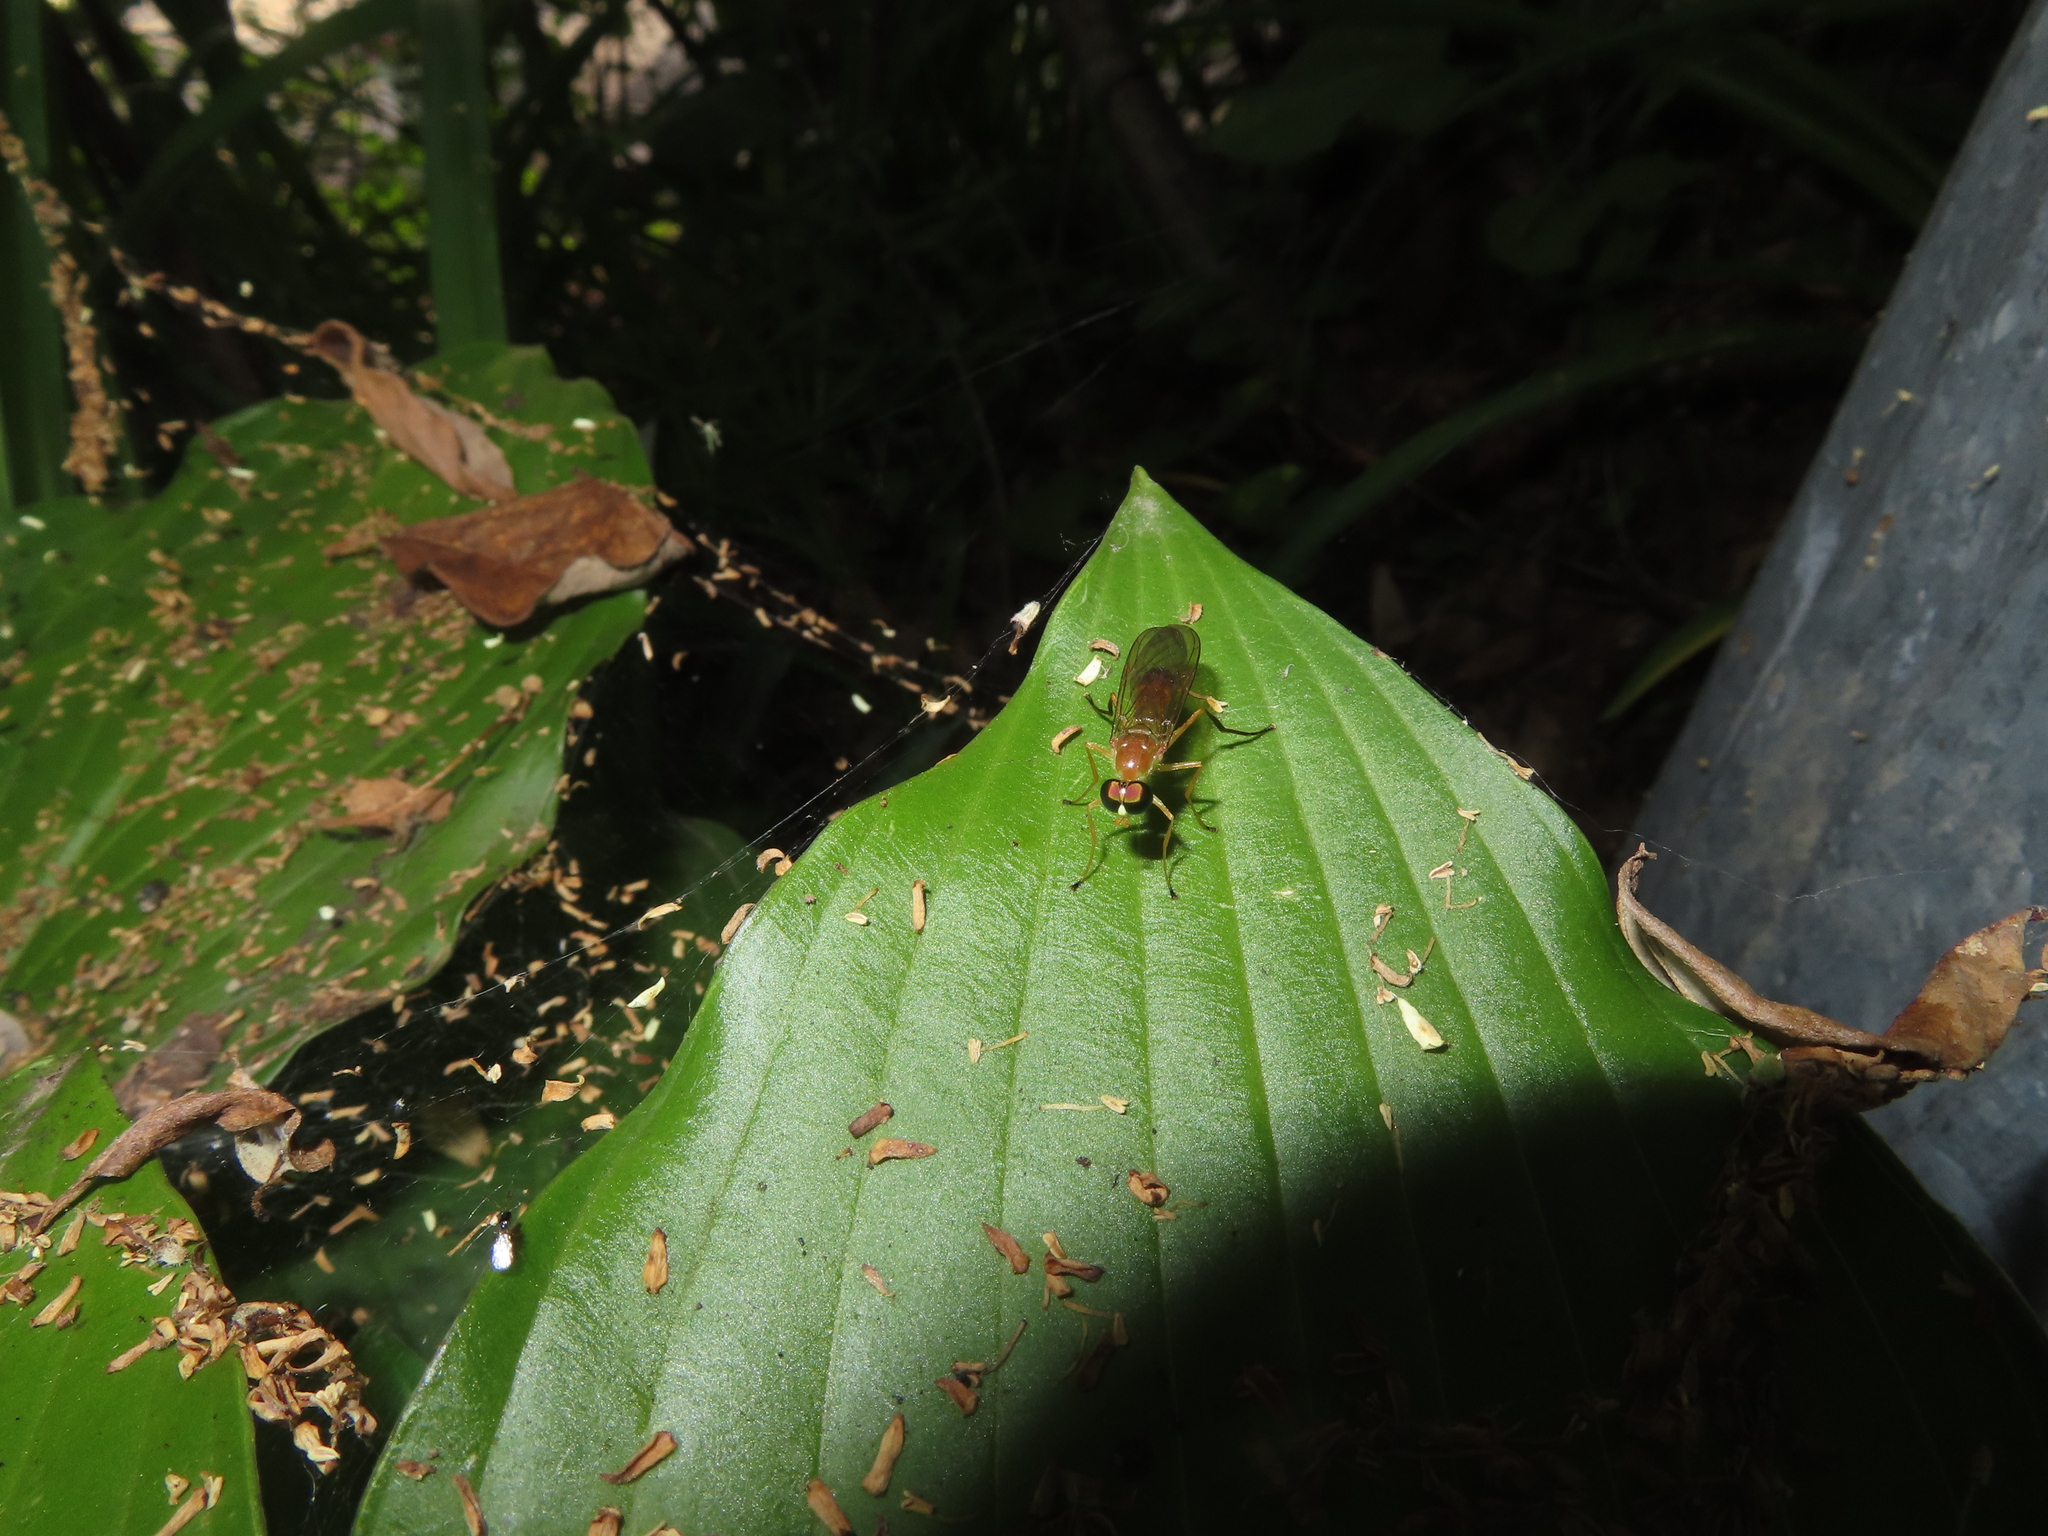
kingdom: Animalia
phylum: Arthropoda
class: Insecta
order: Diptera
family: Stratiomyidae
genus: Ptecticus
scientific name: Ptecticus trivittatus
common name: Compost fly
